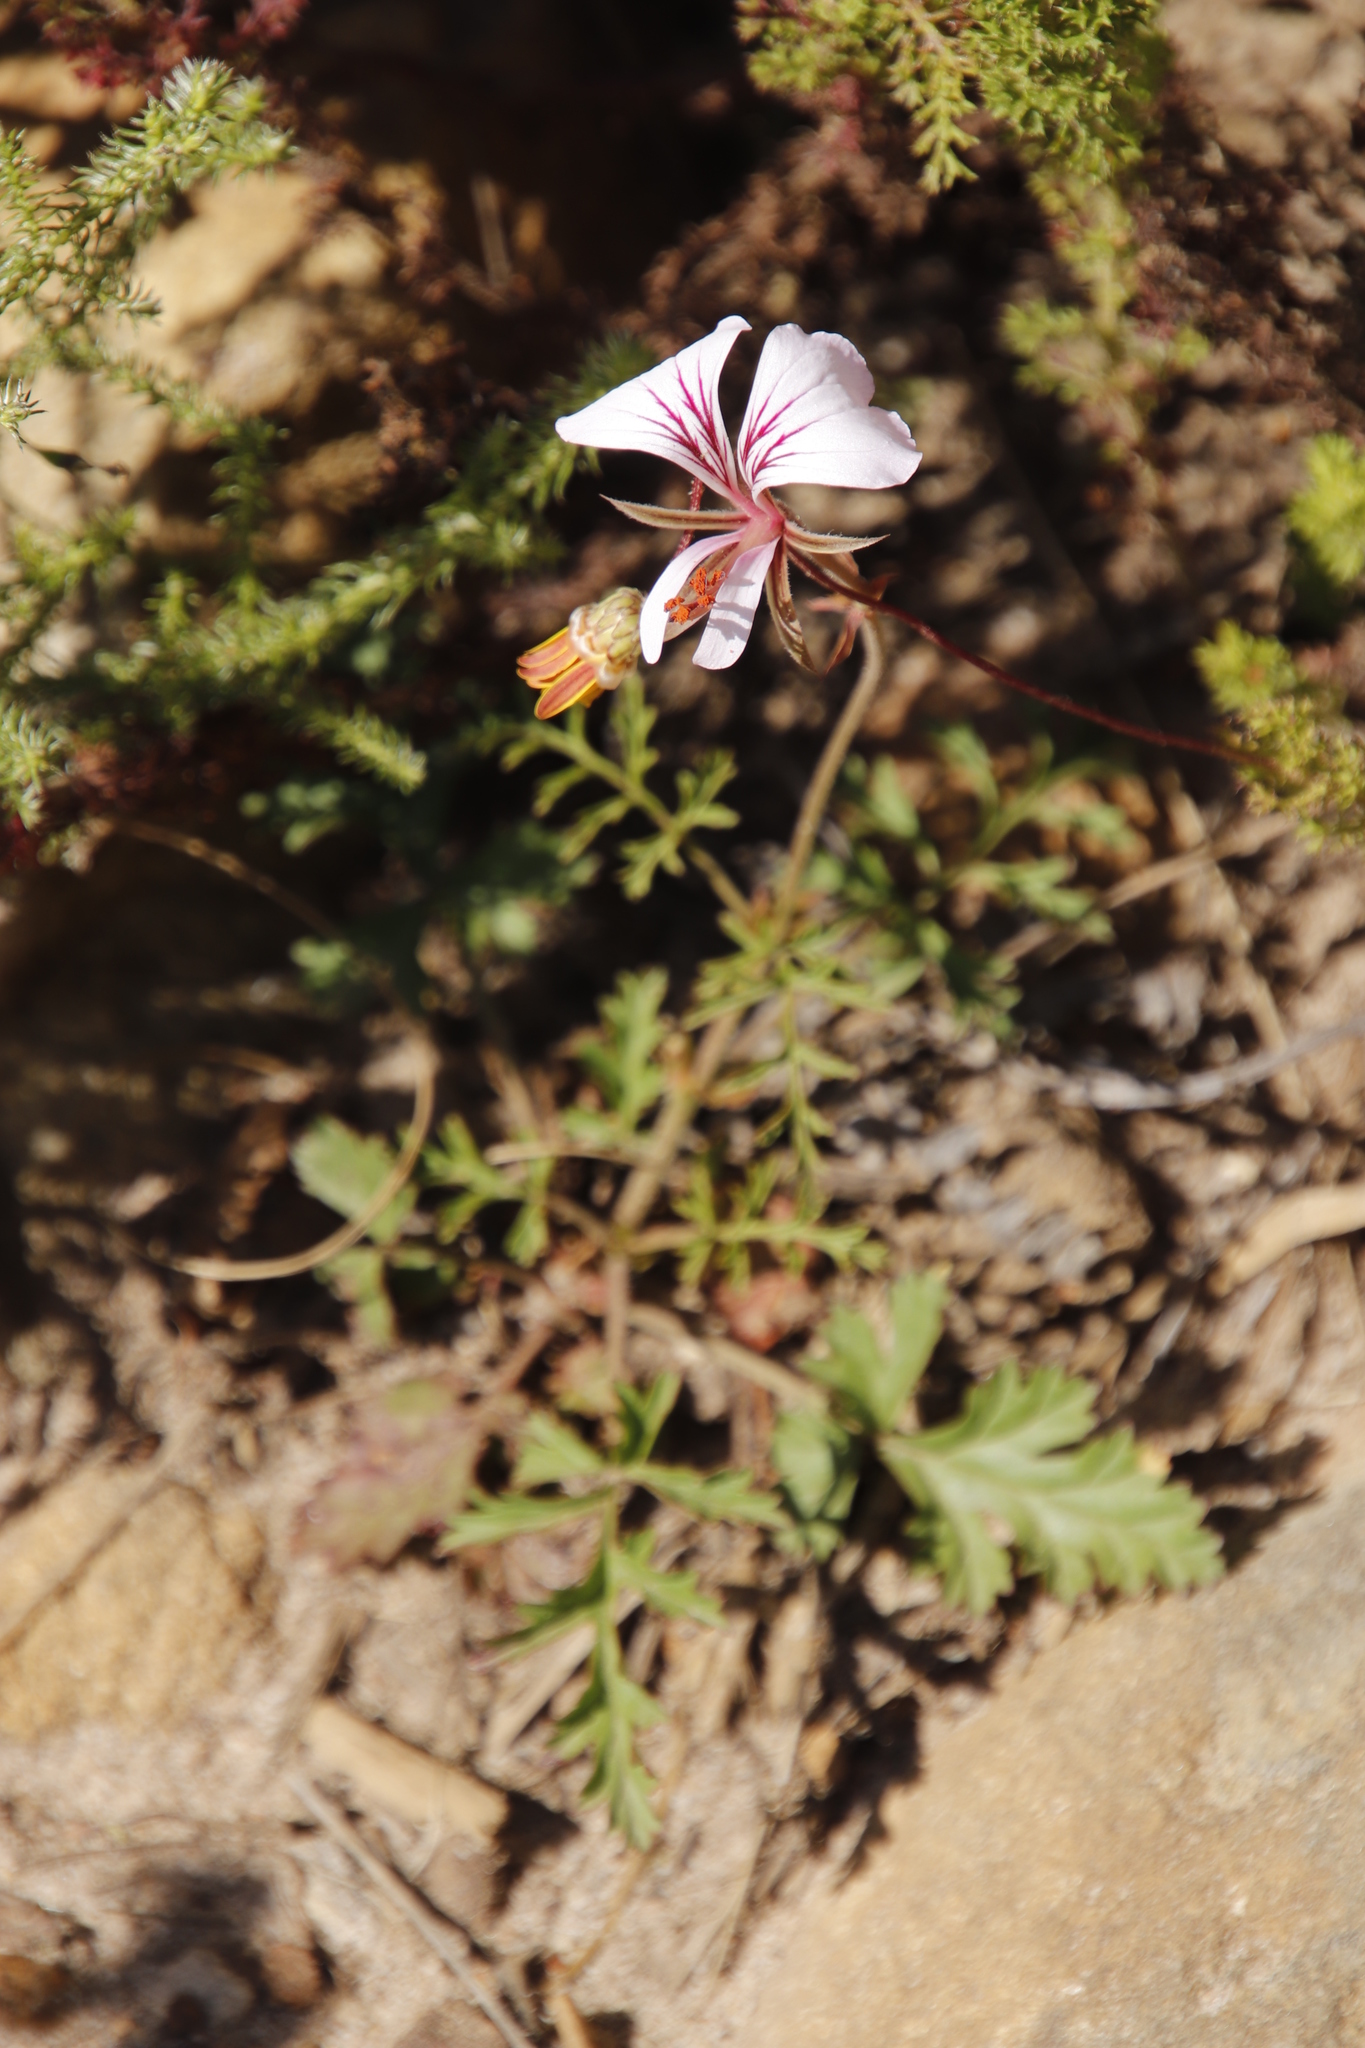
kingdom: Plantae
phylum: Tracheophyta
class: Magnoliopsida
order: Geraniales
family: Geraniaceae
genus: Pelargonium
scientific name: Pelargonium longicaule
